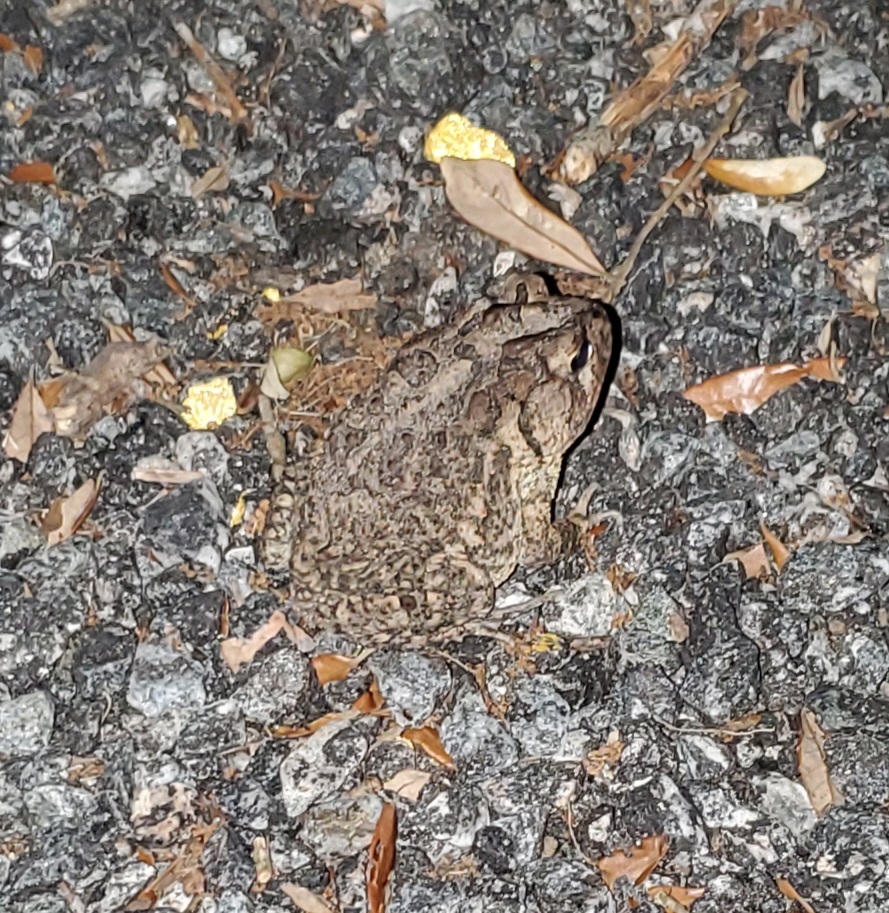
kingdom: Animalia
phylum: Chordata
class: Amphibia
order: Anura
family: Bufonidae
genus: Anaxyrus
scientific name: Anaxyrus terrestris
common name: Southern toad
